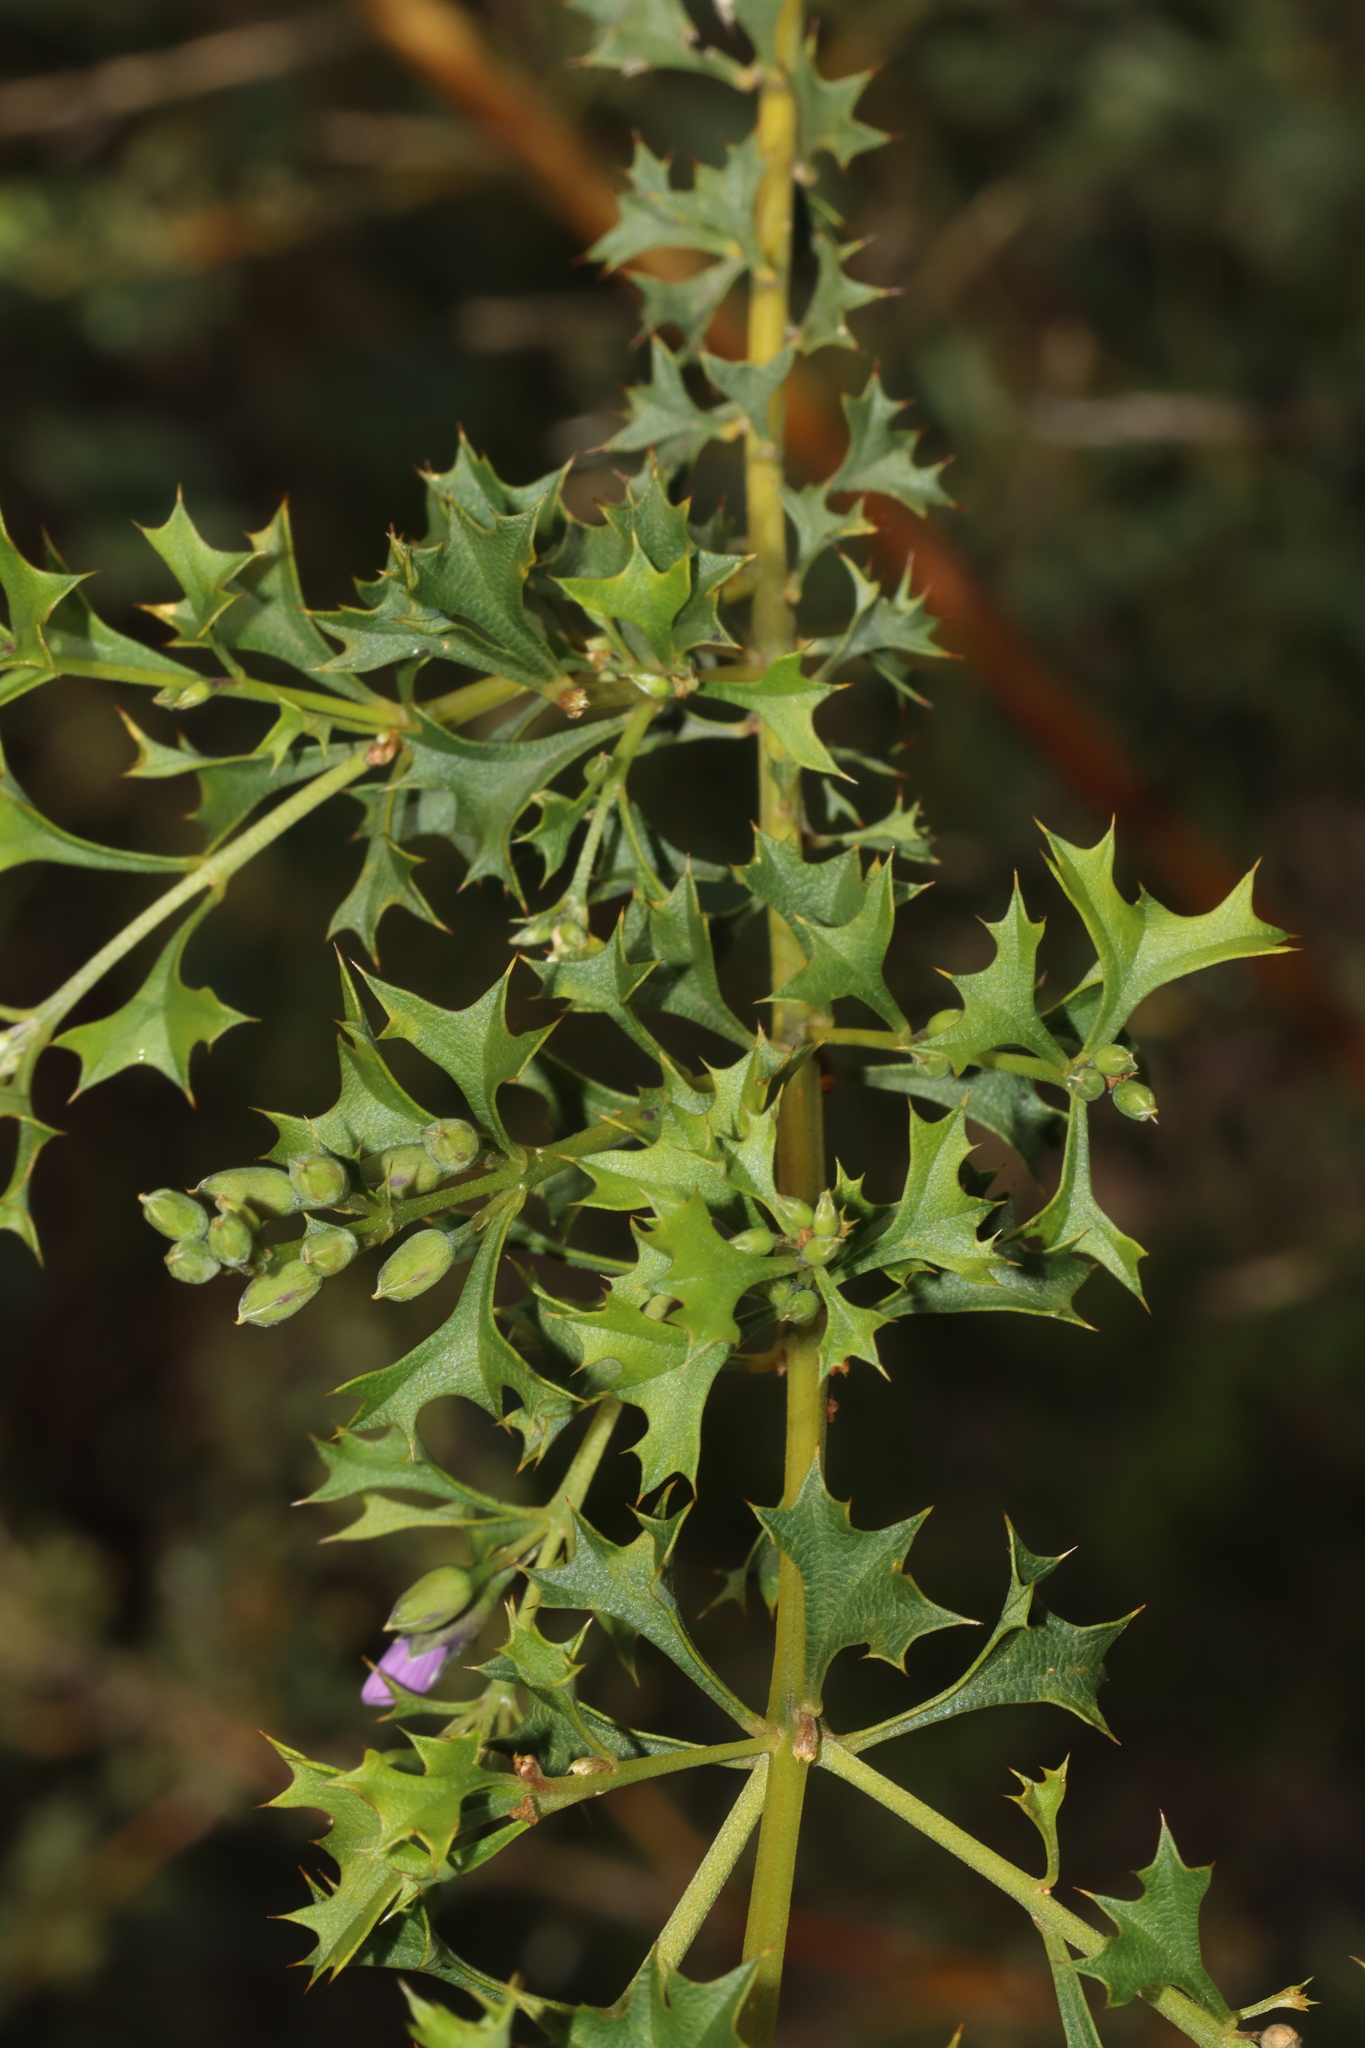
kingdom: Plantae
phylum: Tracheophyta
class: Magnoliopsida
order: Fabales
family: Fabaceae
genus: Mirbelia
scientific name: Mirbelia dilatata
